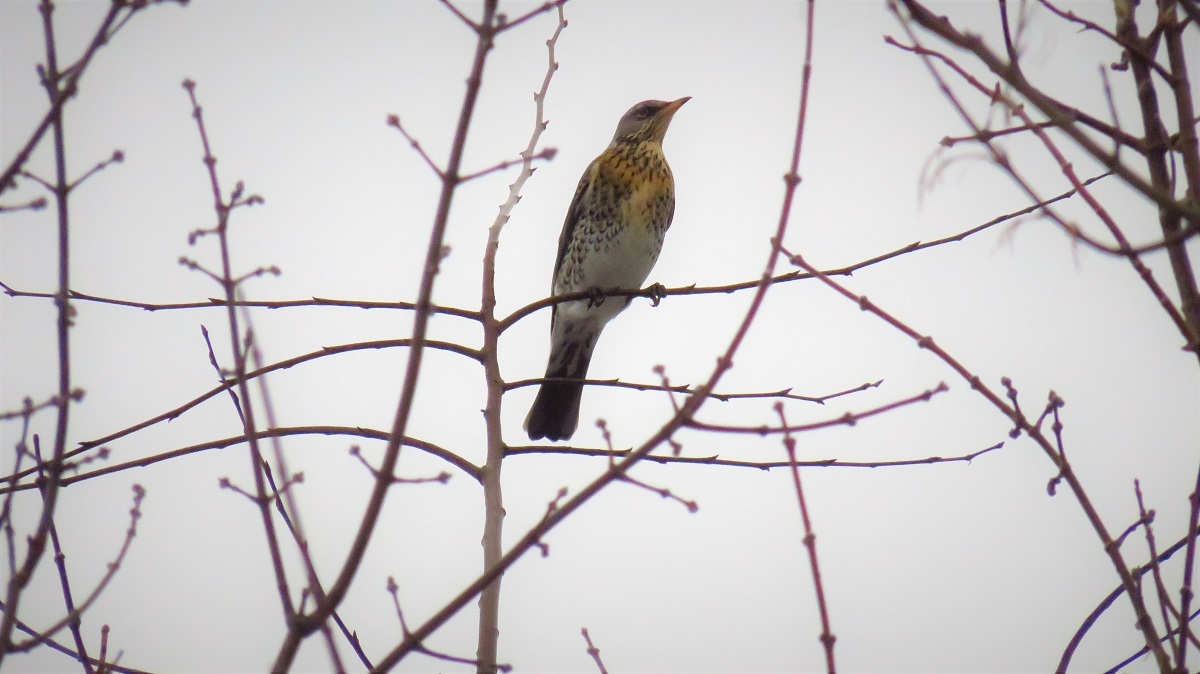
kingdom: Animalia
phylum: Chordata
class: Aves
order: Passeriformes
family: Turdidae
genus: Turdus
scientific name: Turdus pilaris
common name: Fieldfare
